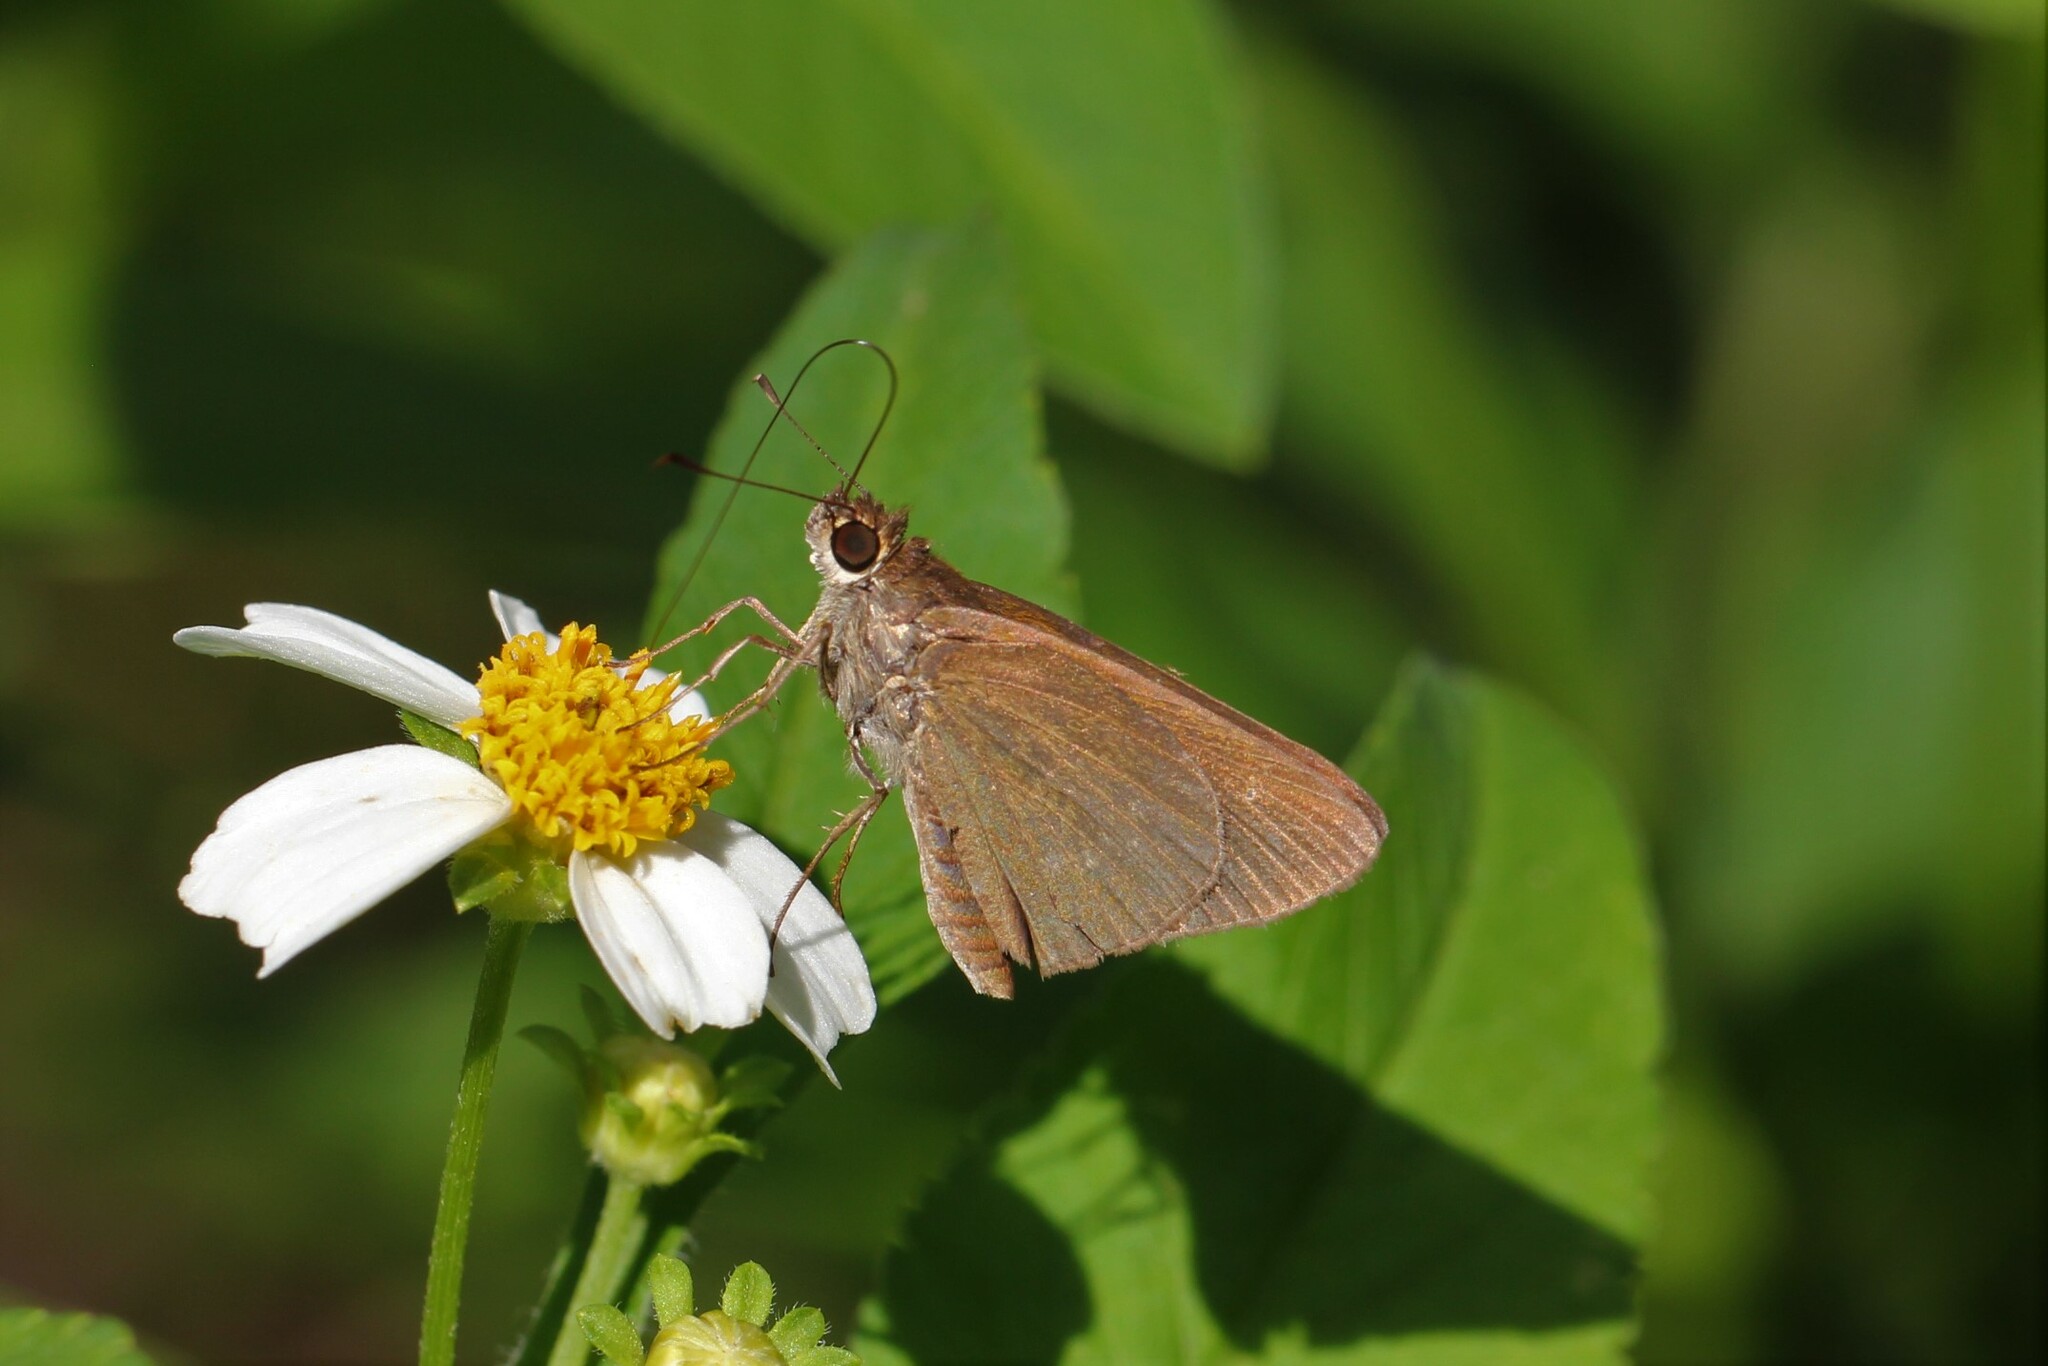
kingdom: Animalia
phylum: Arthropoda
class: Insecta
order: Lepidoptera
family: Hesperiidae
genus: Cymaenes
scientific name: Cymaenes tripunctus
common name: Dingy dotted skipper
